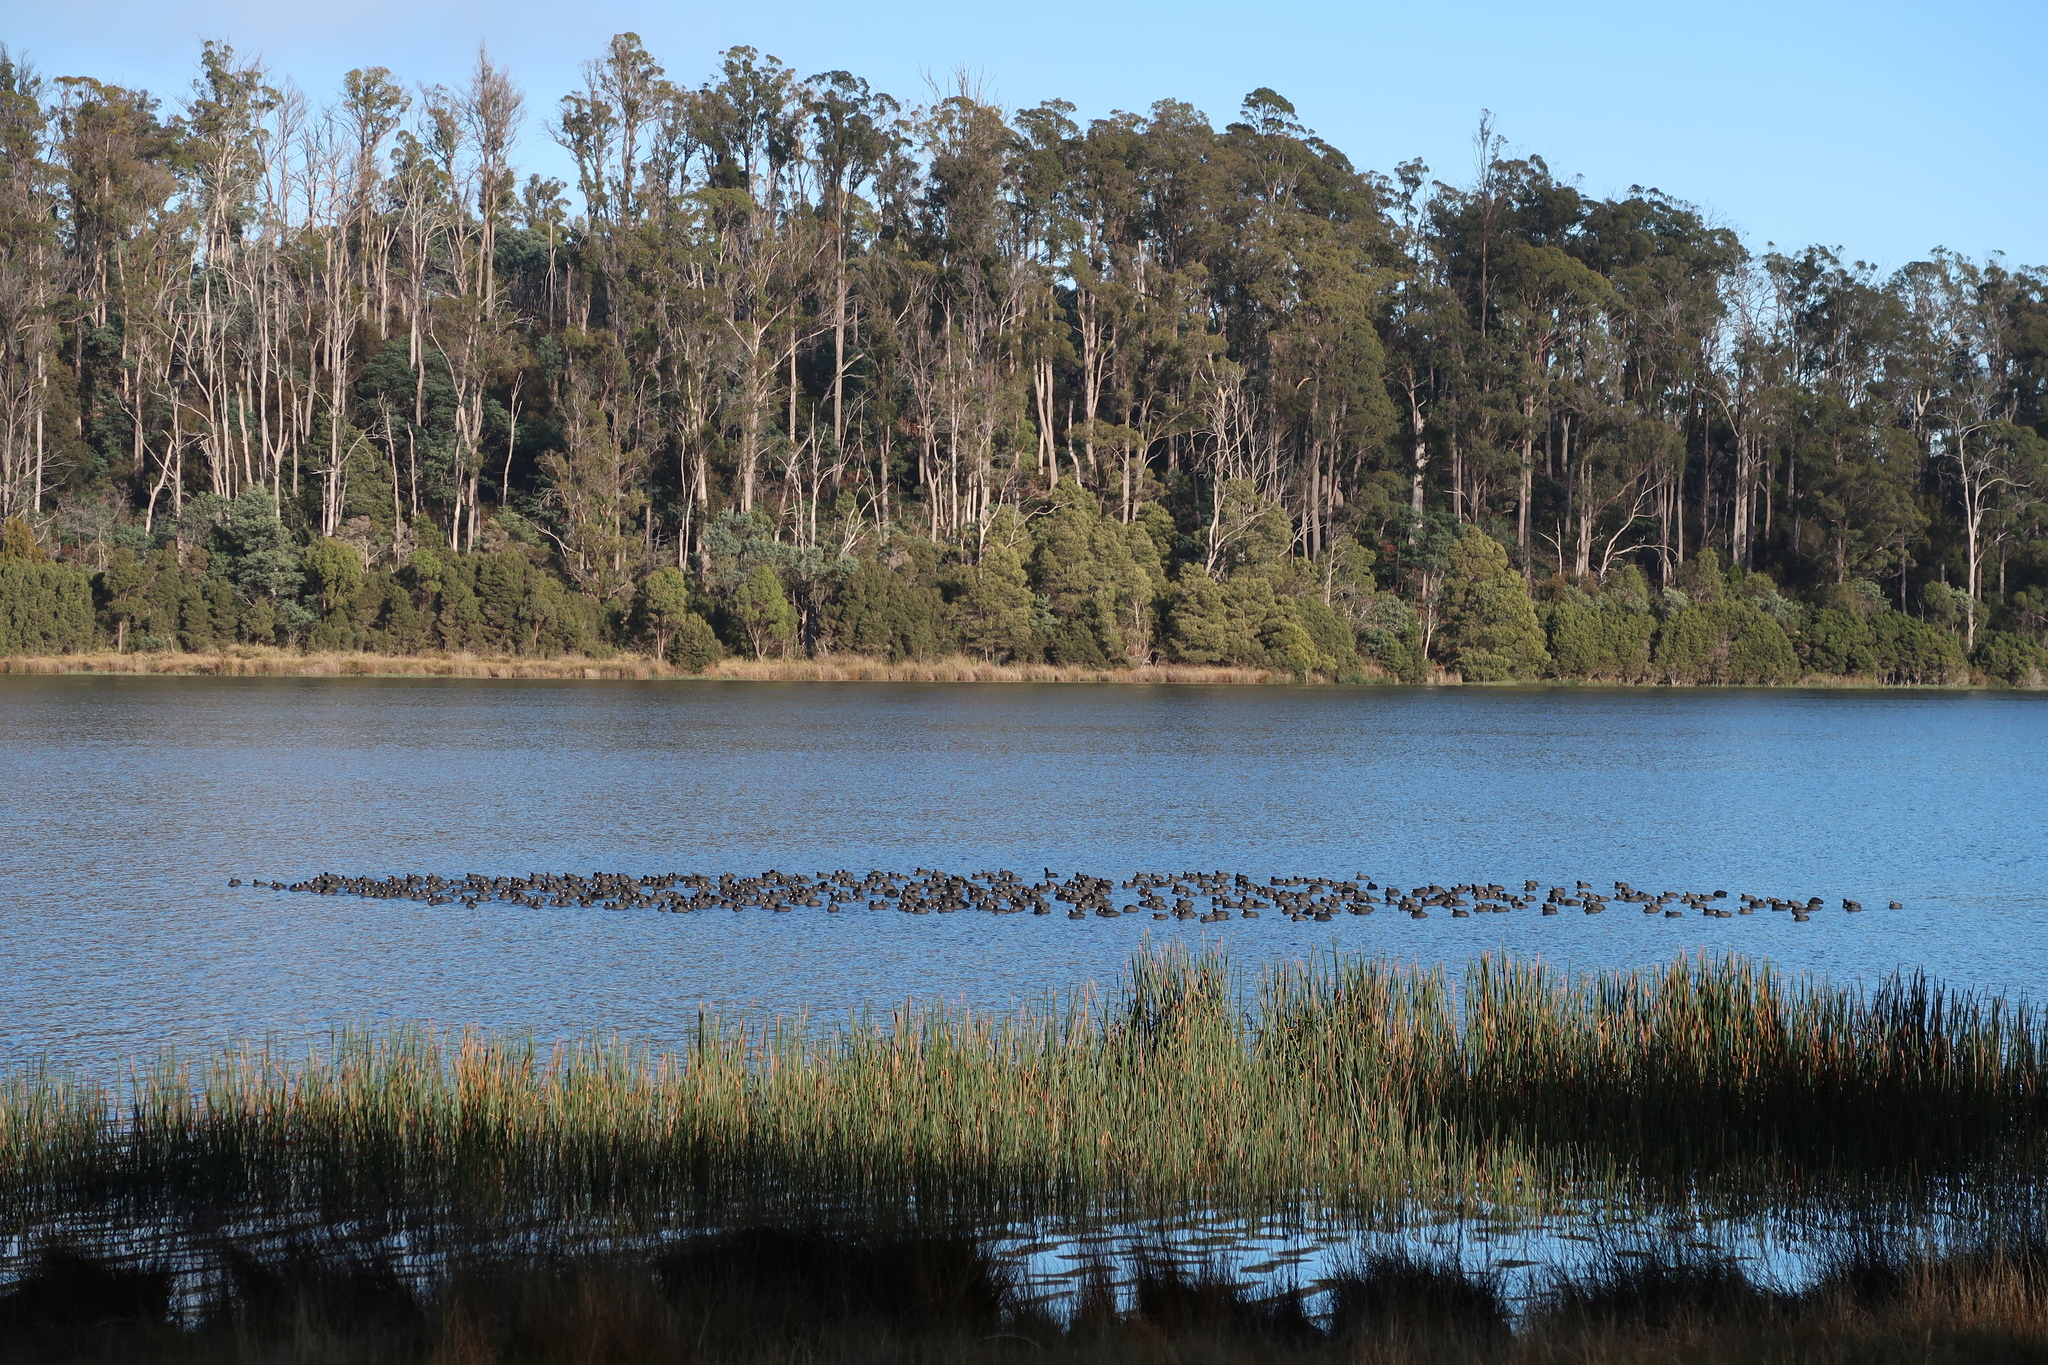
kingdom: Animalia
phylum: Chordata
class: Aves
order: Gruiformes
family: Rallidae
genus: Fulica
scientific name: Fulica atra
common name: Eurasian coot
